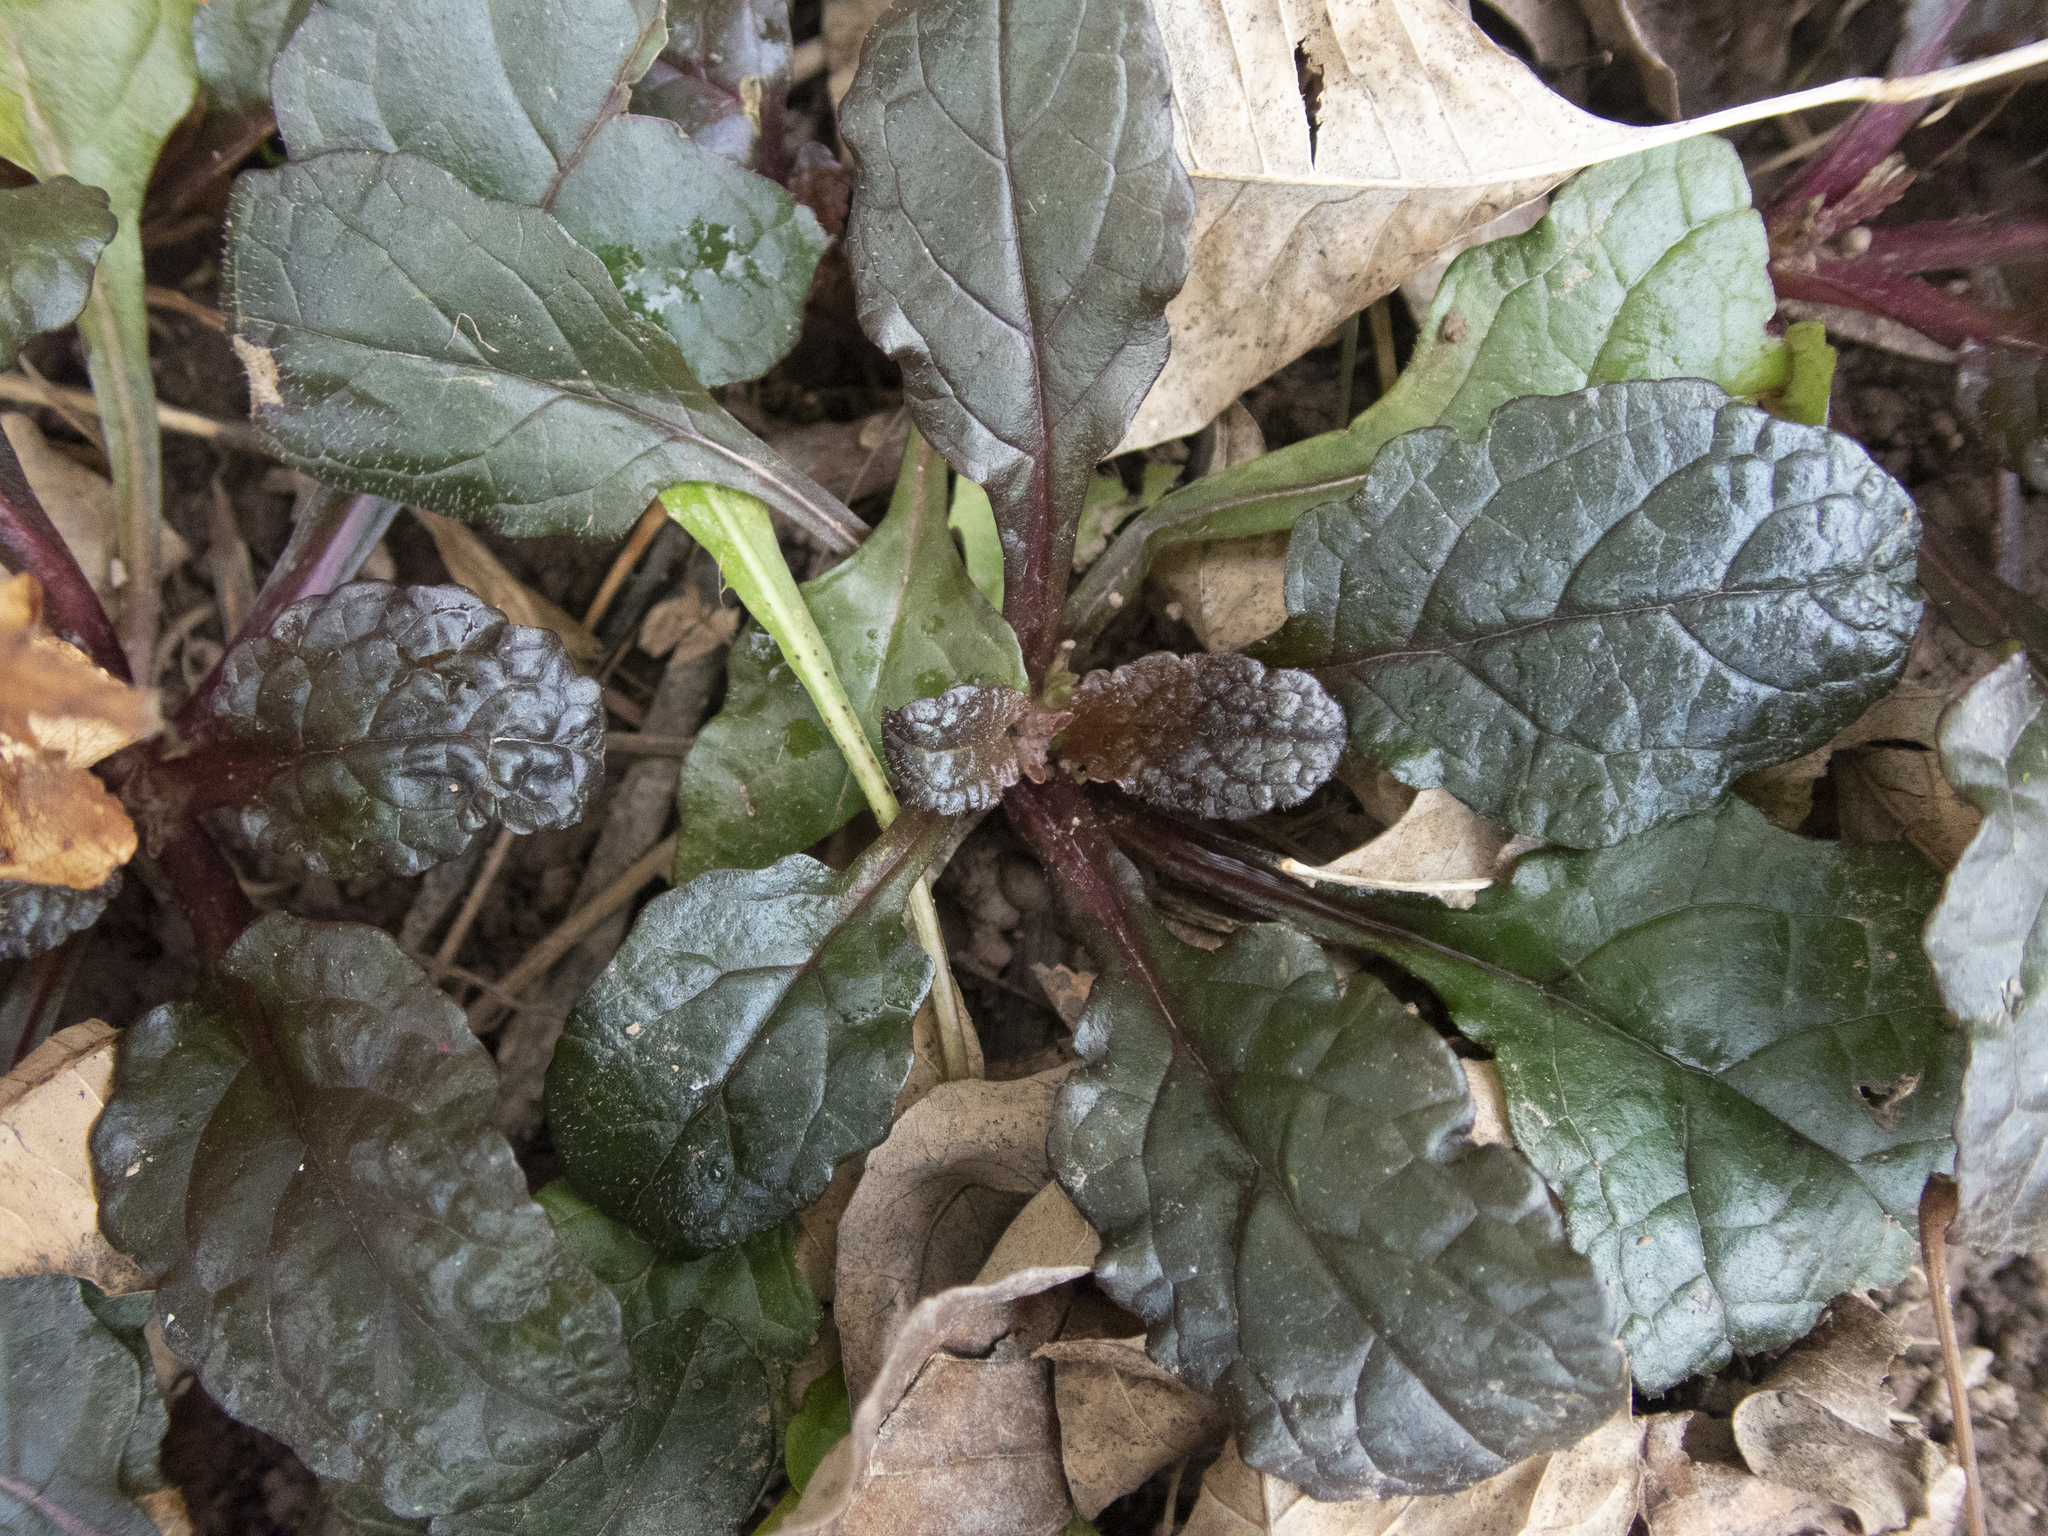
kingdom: Plantae
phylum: Tracheophyta
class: Magnoliopsida
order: Lamiales
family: Lamiaceae
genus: Ajuga
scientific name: Ajuga reptans
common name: Bugle
